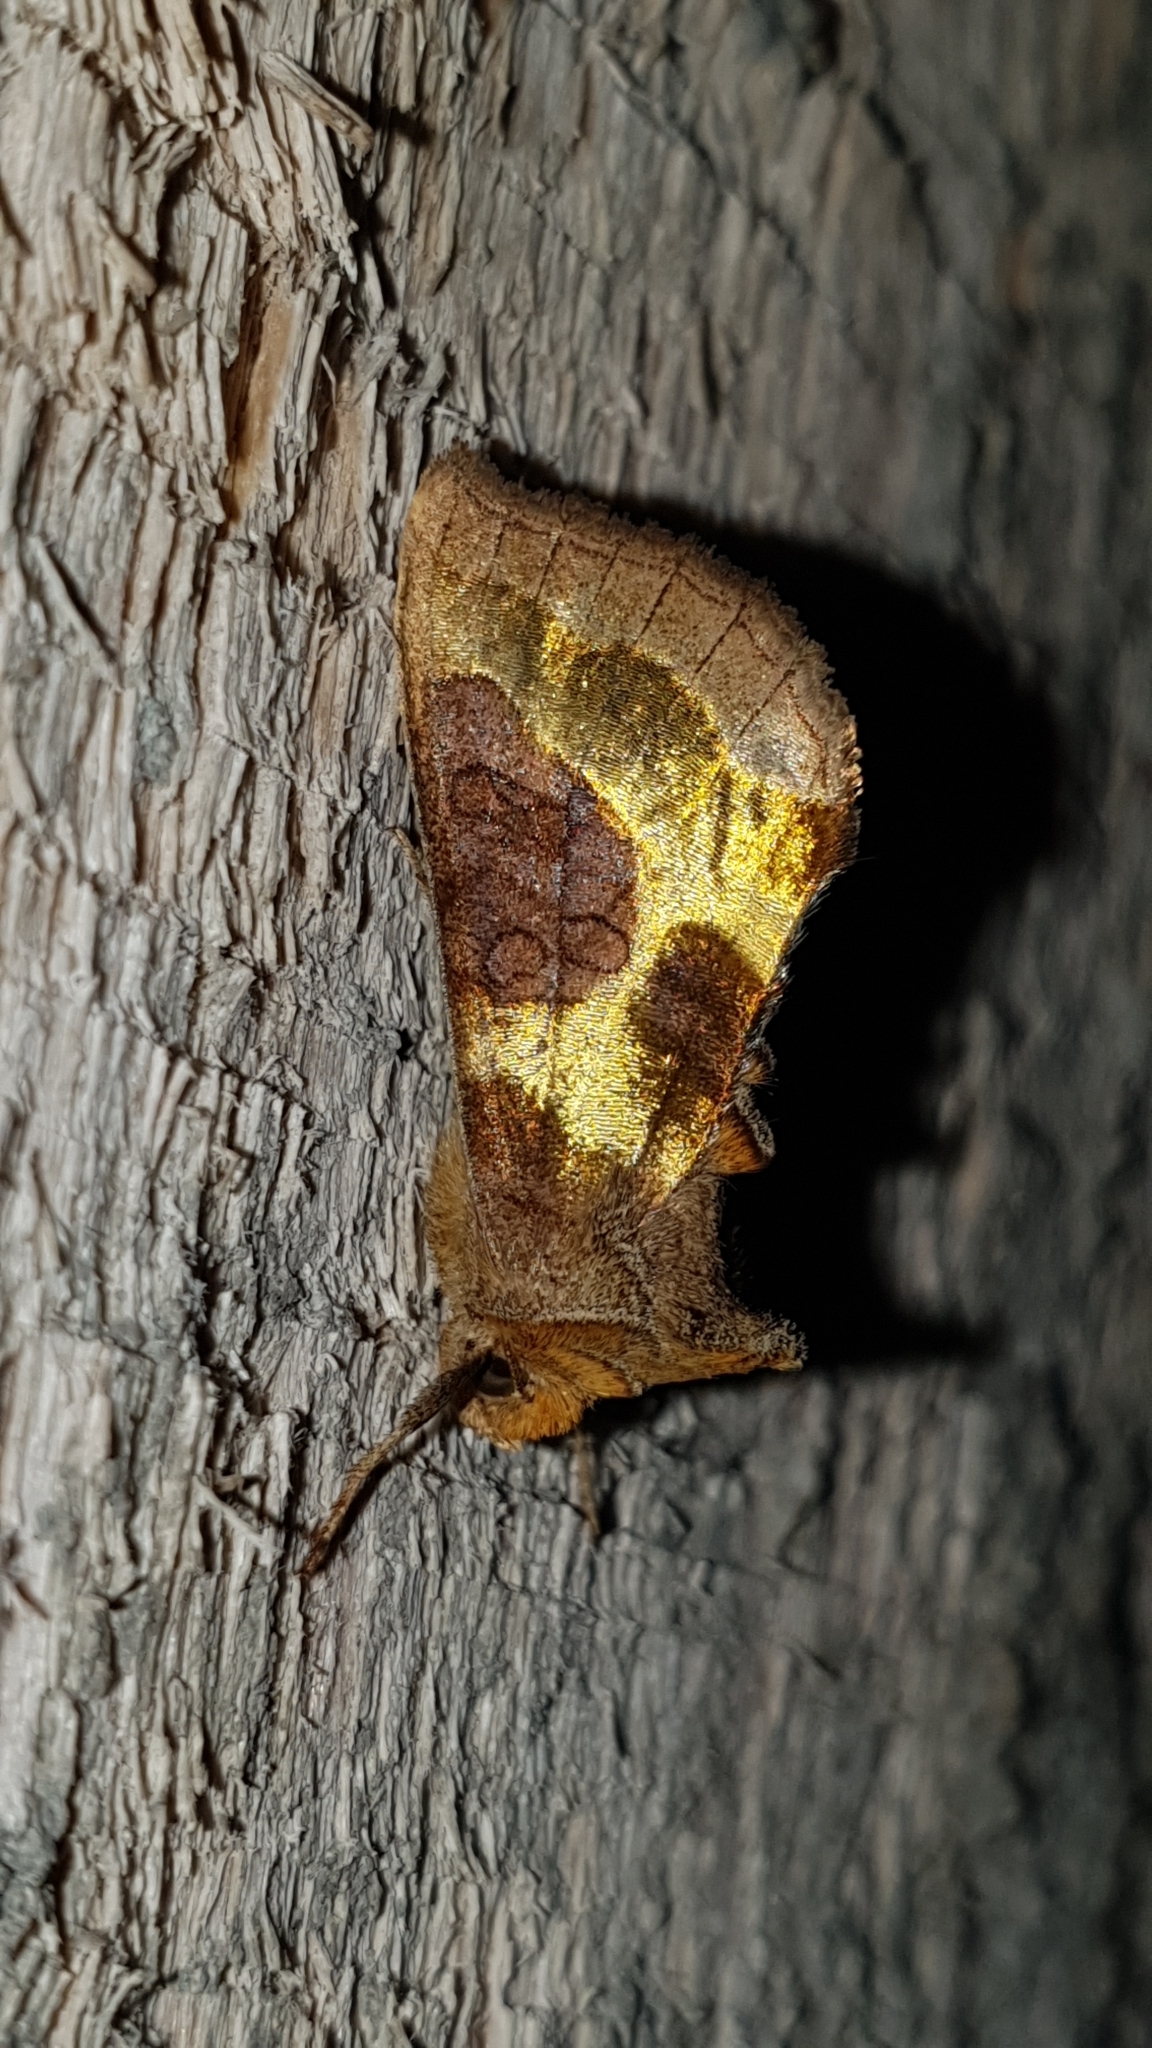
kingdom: Animalia
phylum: Arthropoda
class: Insecta
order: Lepidoptera
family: Noctuidae
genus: Diachrysia
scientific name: Diachrysia stenochrysis
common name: Cryptic burnished brass
